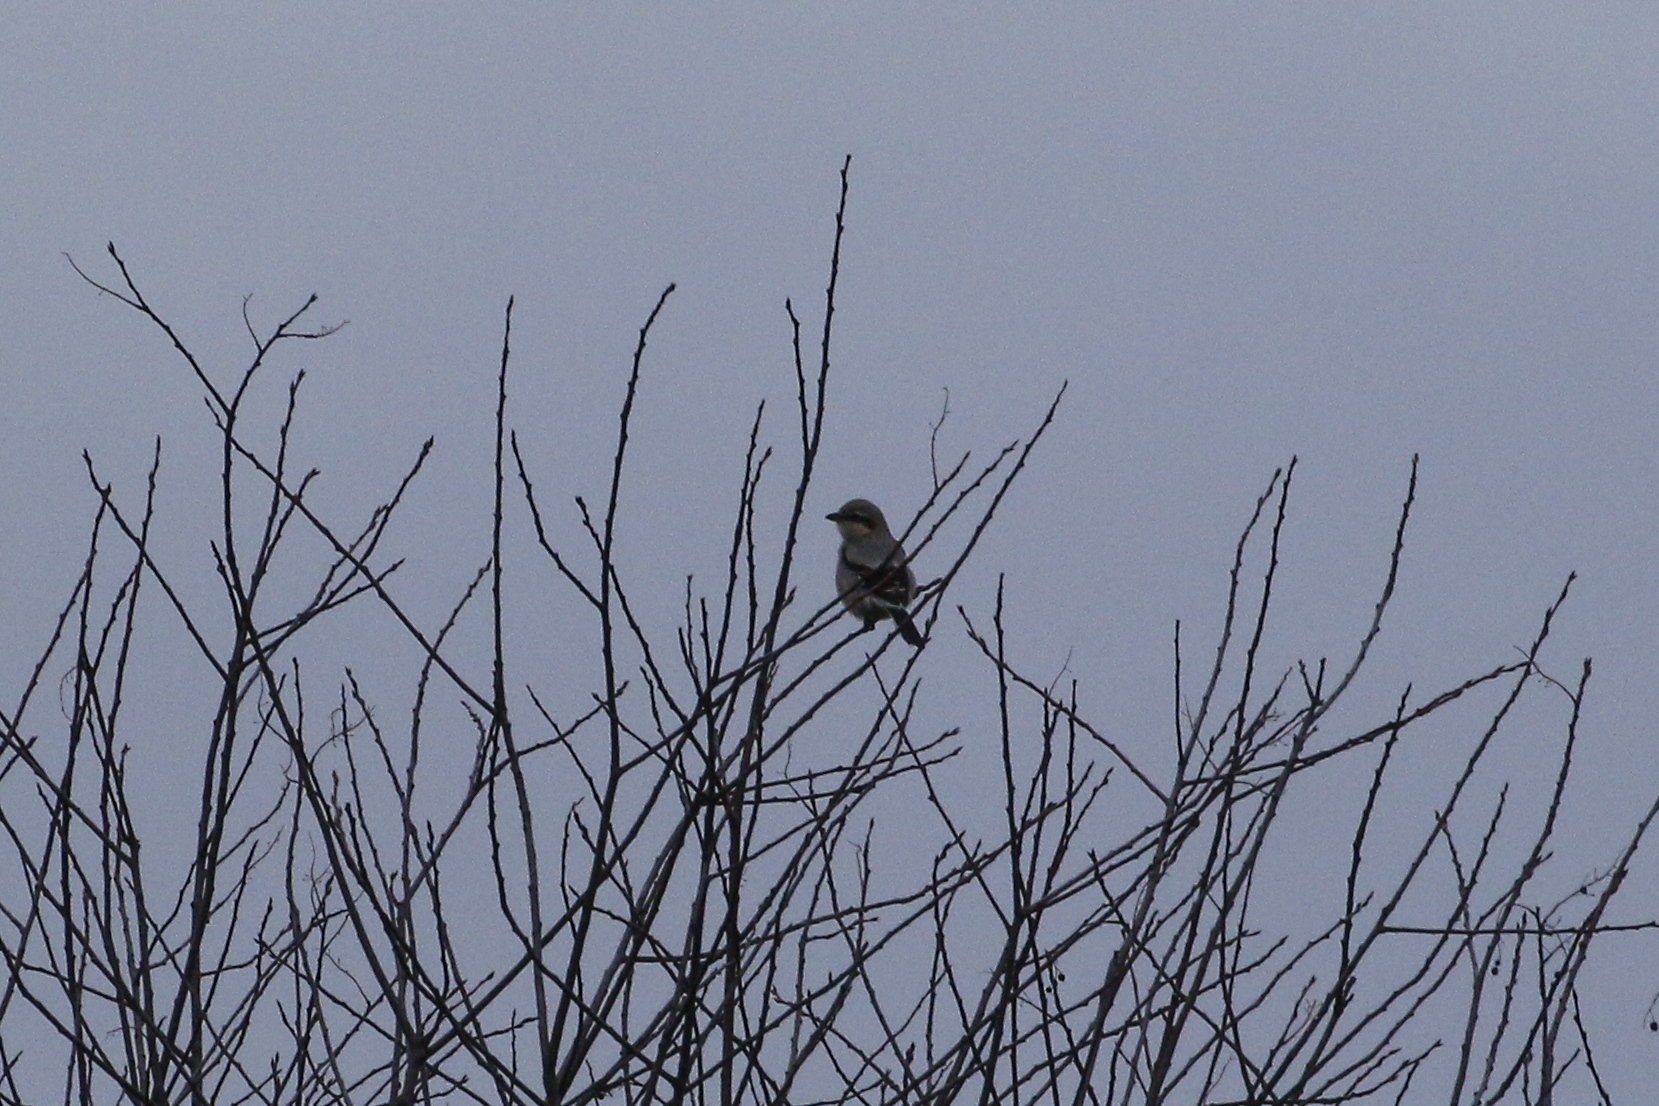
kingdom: Animalia
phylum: Chordata
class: Aves
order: Passeriformes
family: Laniidae
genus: Lanius
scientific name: Lanius excubitor
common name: Great grey shrike
